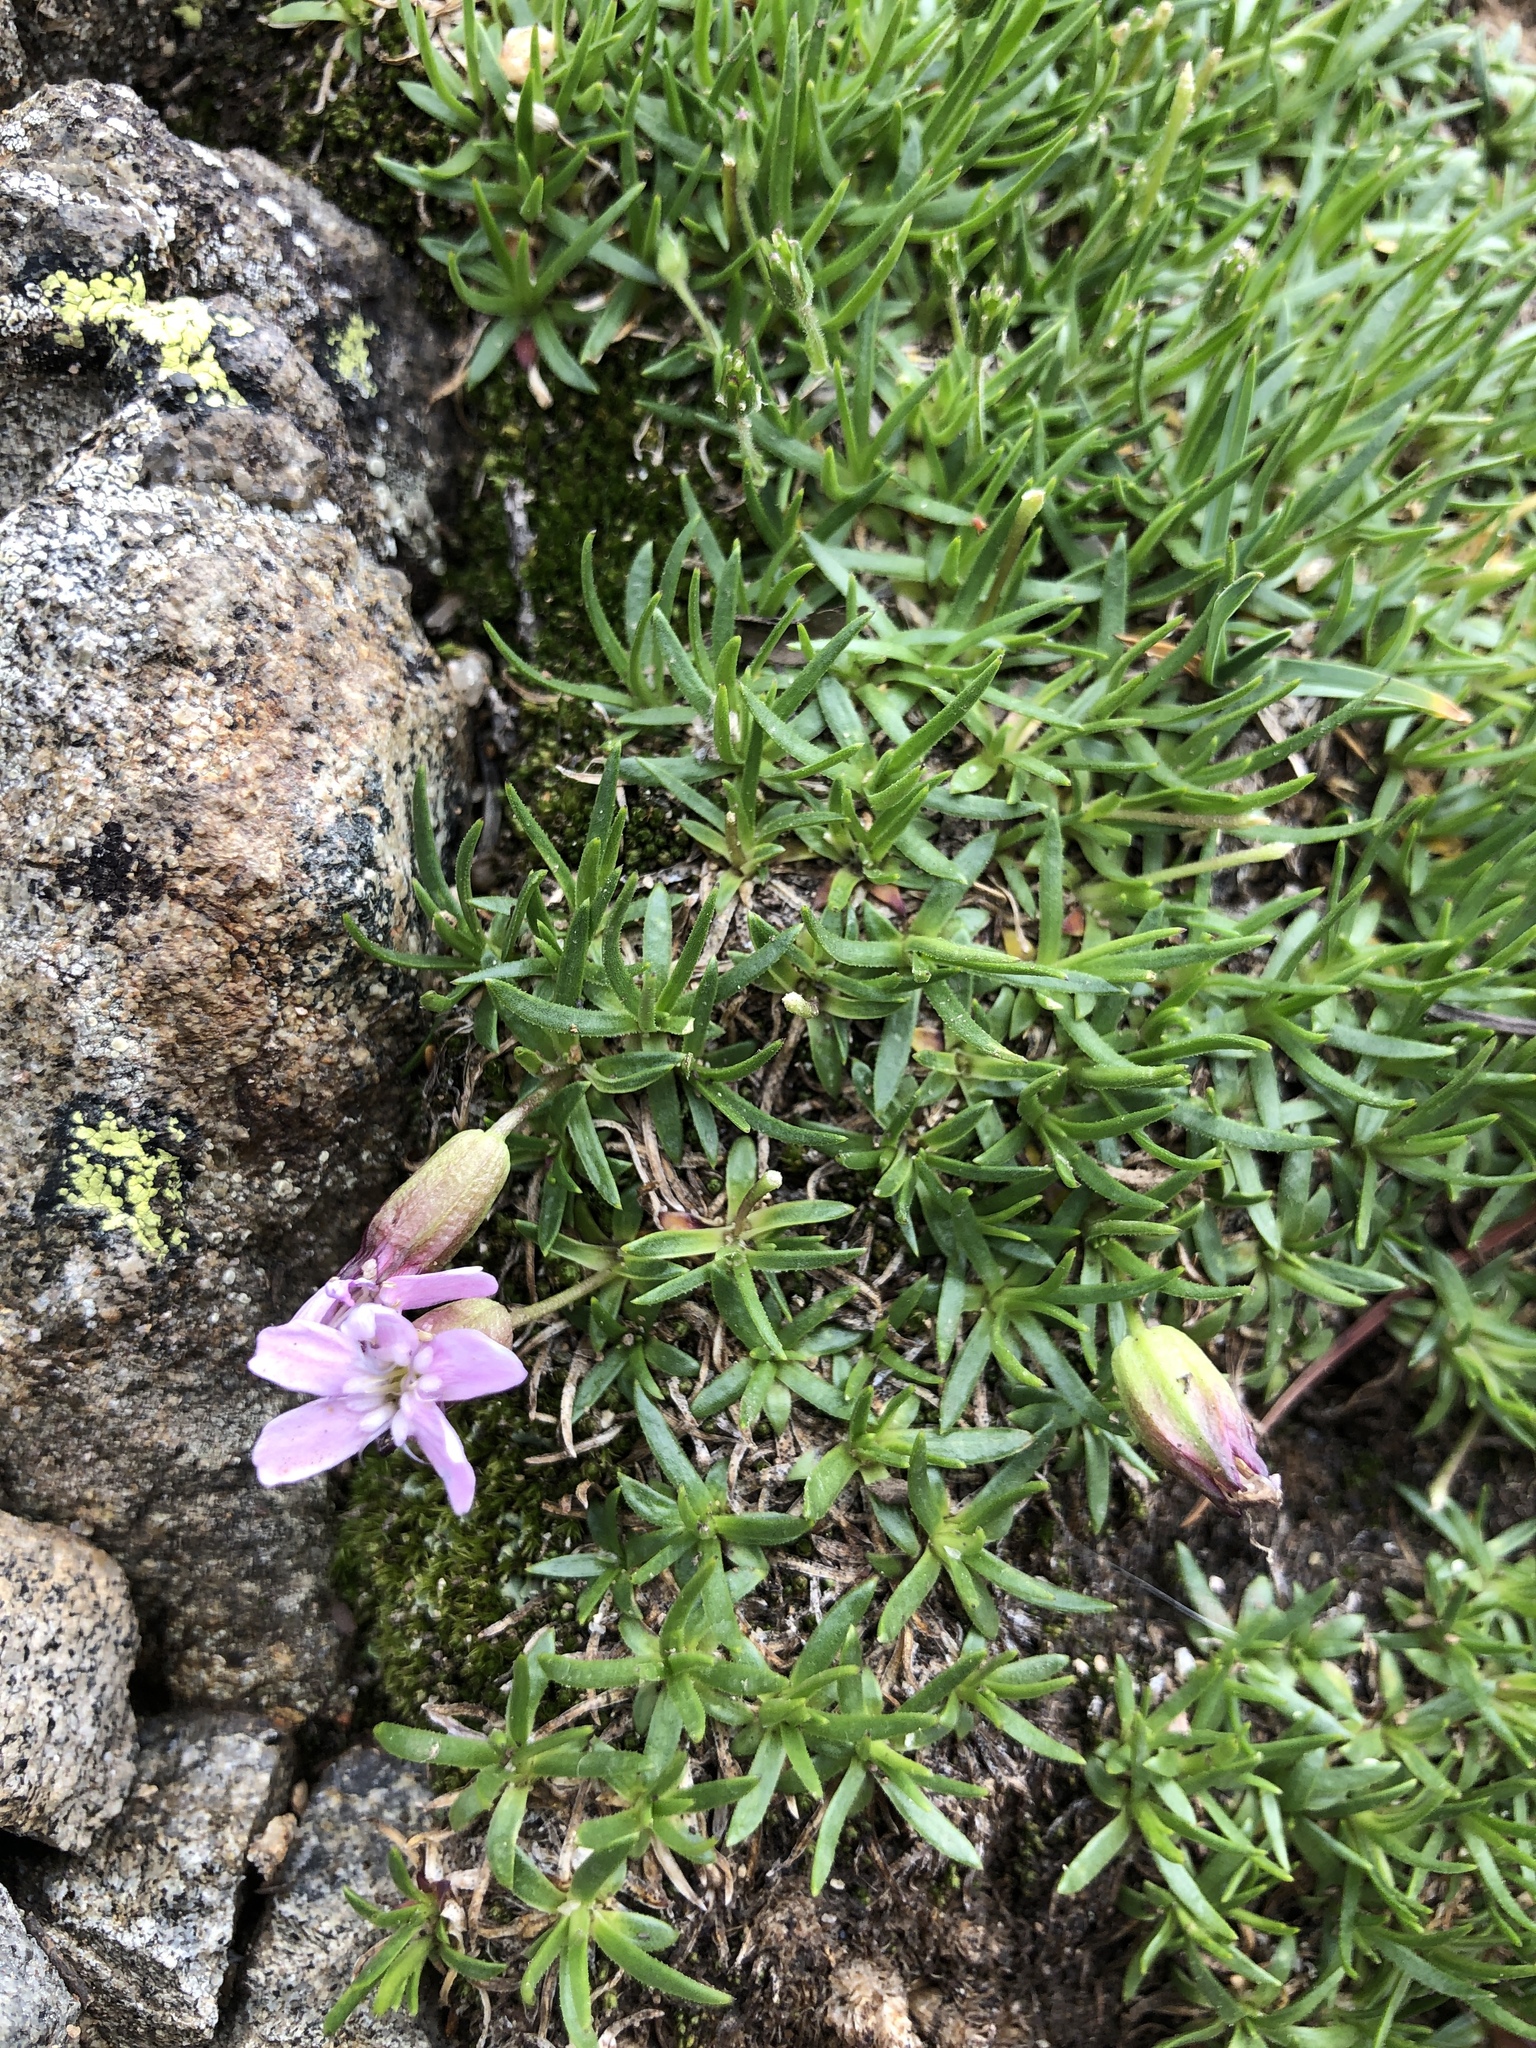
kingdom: Plantae
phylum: Tracheophyta
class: Magnoliopsida
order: Caryophyllales
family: Caryophyllaceae
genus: Silene
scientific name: Silene acaulis
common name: Moss campion
